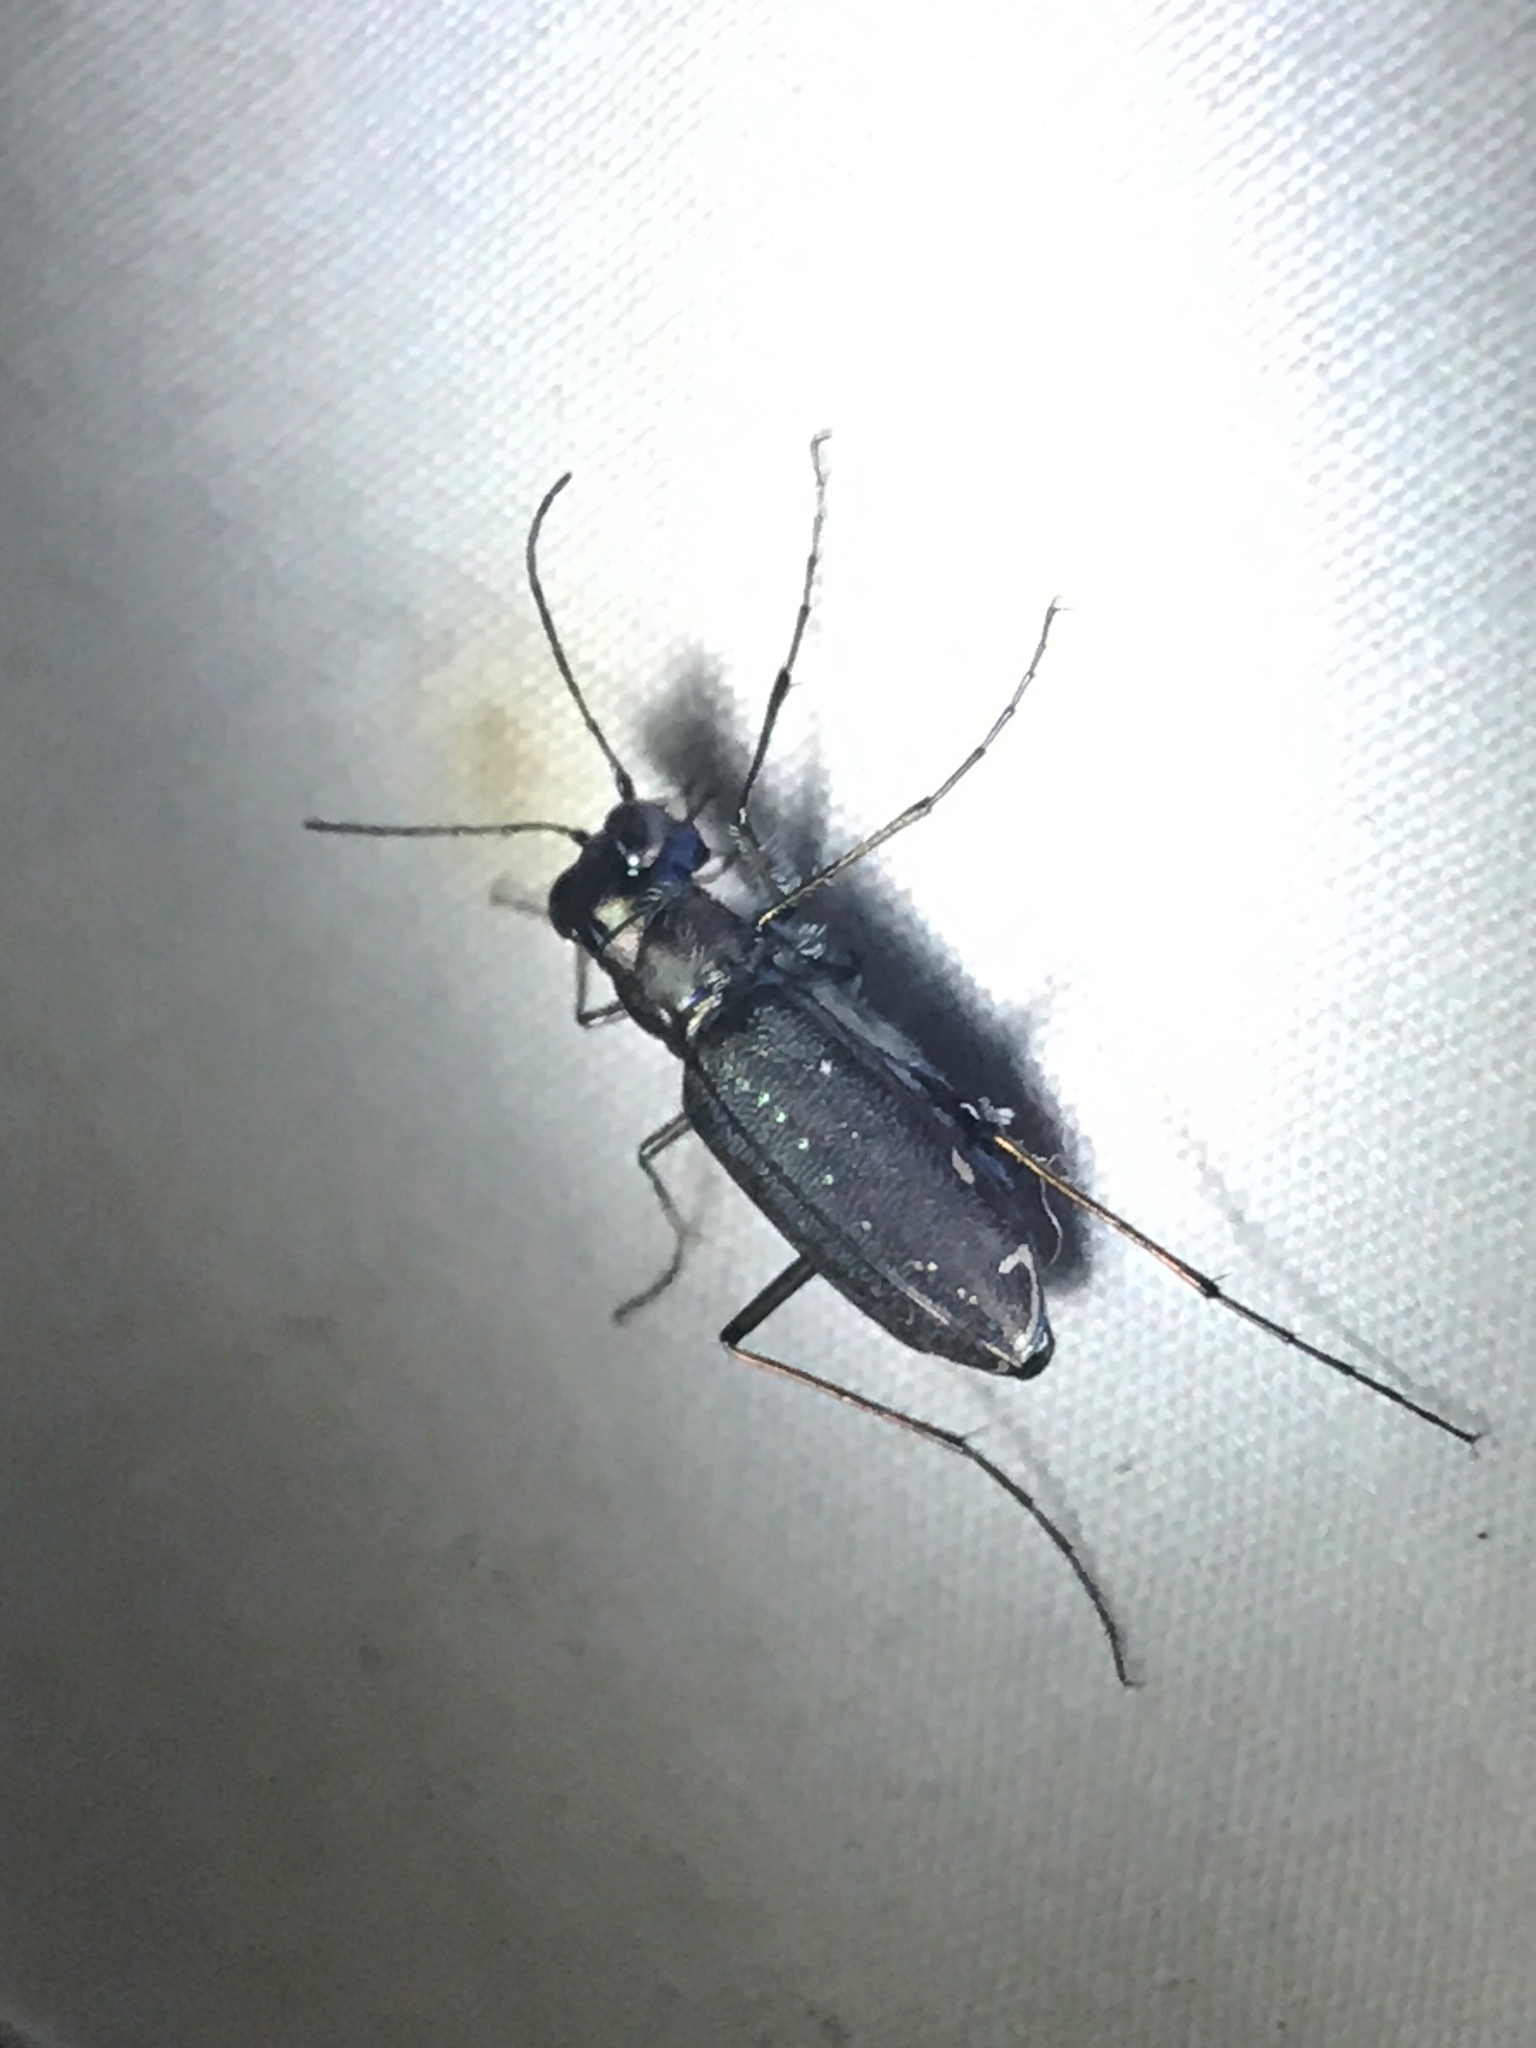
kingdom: Animalia
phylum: Arthropoda
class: Insecta
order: Coleoptera
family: Carabidae
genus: Cicindela
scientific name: Cicindela punctulata
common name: Punctured tiger beetle
